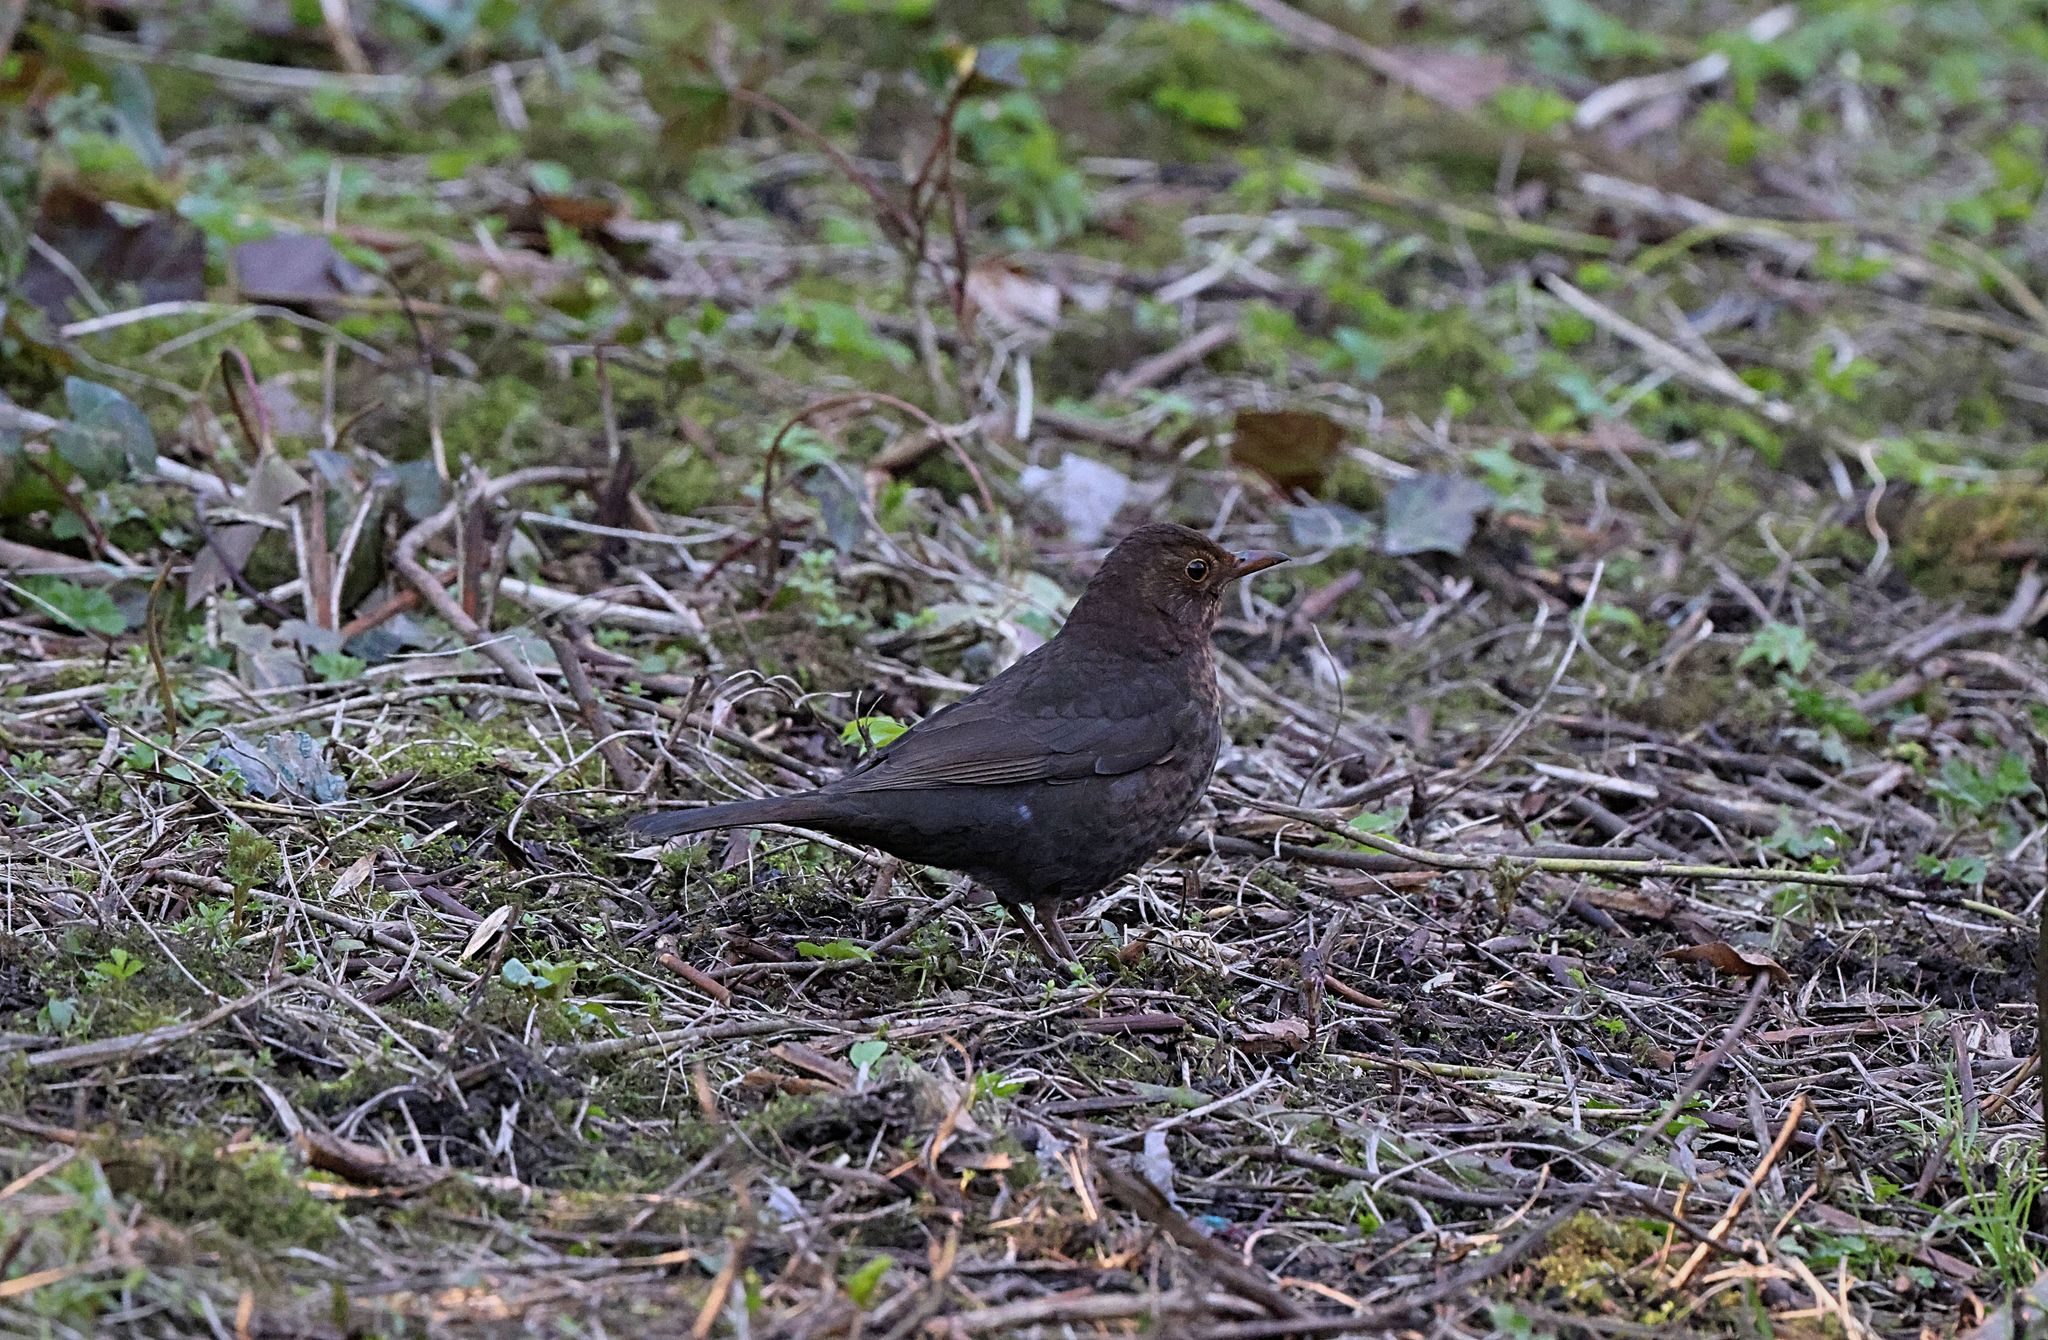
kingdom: Animalia
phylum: Chordata
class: Aves
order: Passeriformes
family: Turdidae
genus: Turdus
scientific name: Turdus merula
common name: Common blackbird
